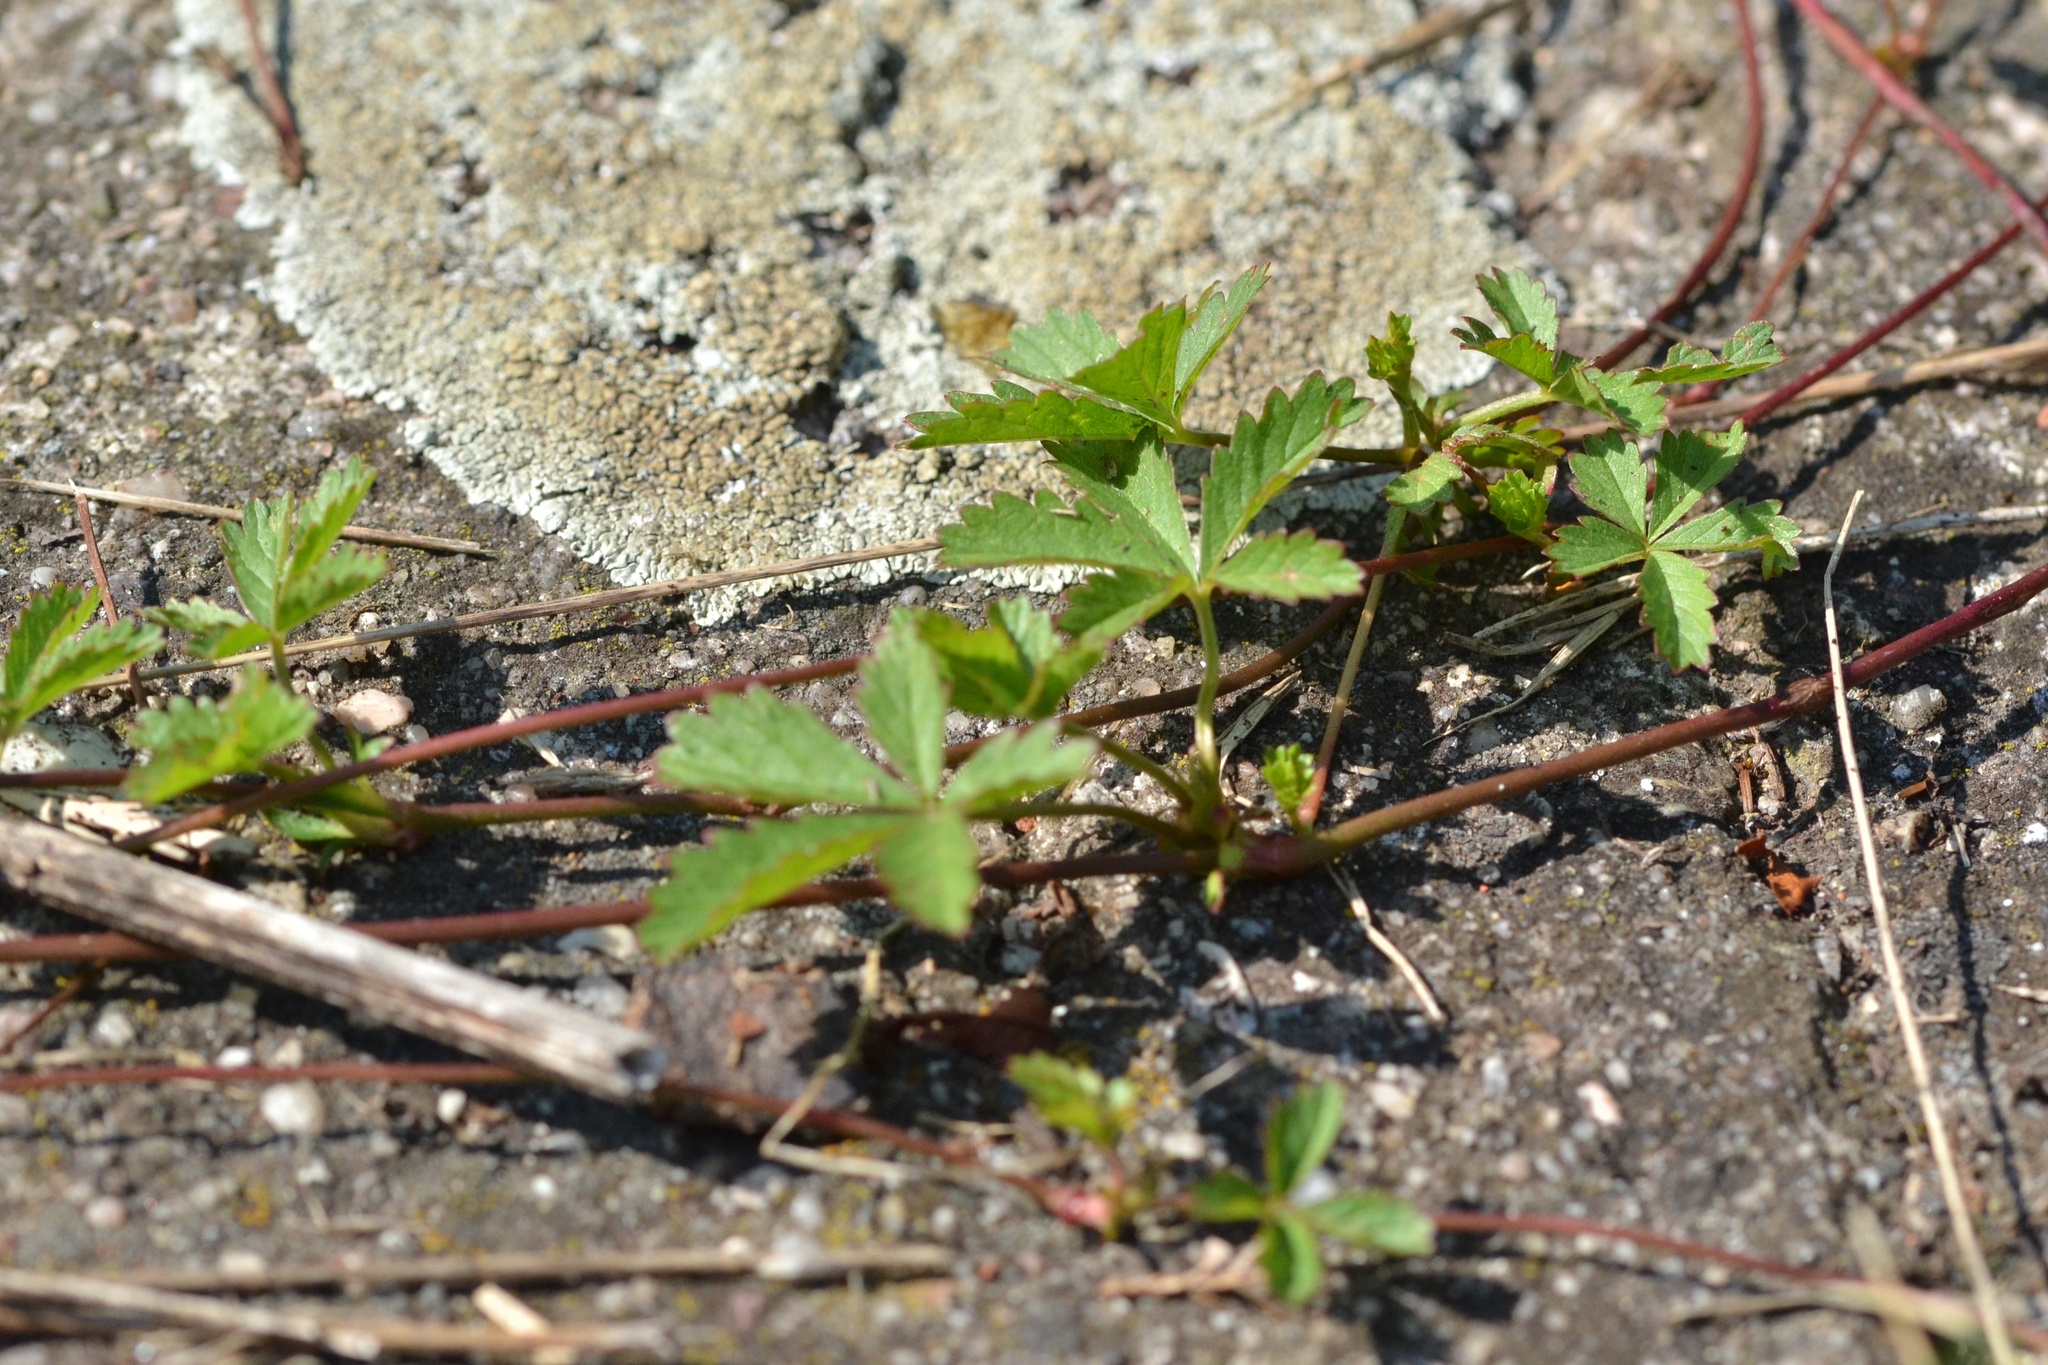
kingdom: Plantae
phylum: Tracheophyta
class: Magnoliopsida
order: Rosales
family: Rosaceae
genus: Potentilla
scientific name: Potentilla reptans
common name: Creeping cinquefoil
